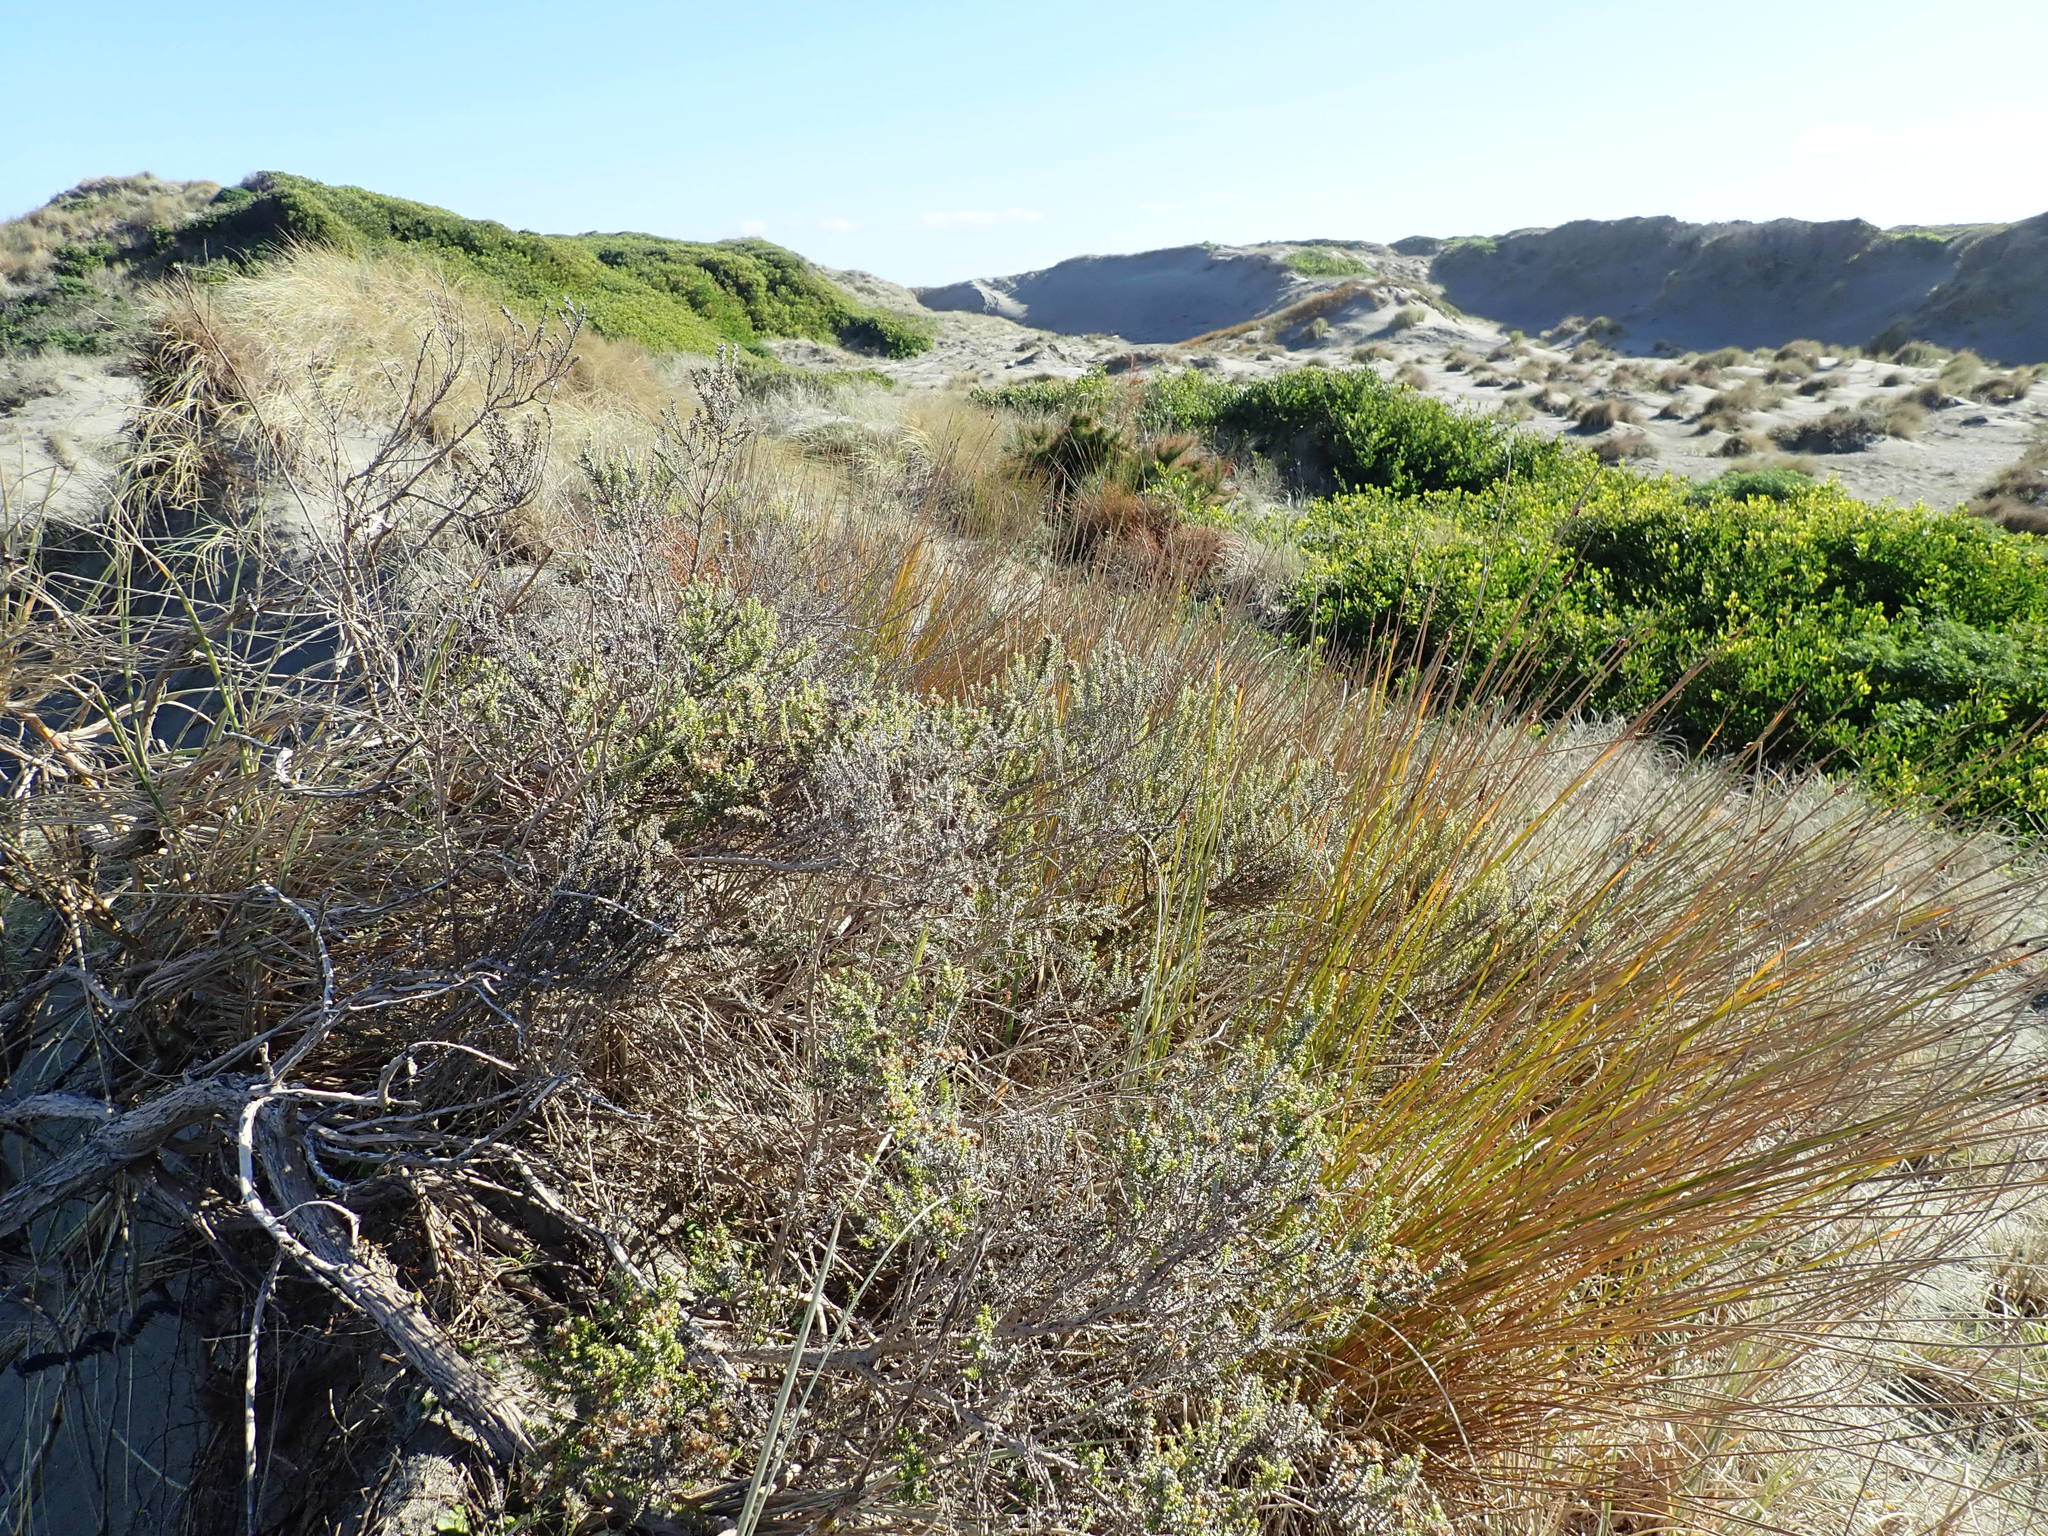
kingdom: Plantae
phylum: Tracheophyta
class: Magnoliopsida
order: Asterales
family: Asteraceae
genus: Ozothamnus
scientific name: Ozothamnus leptophyllus
